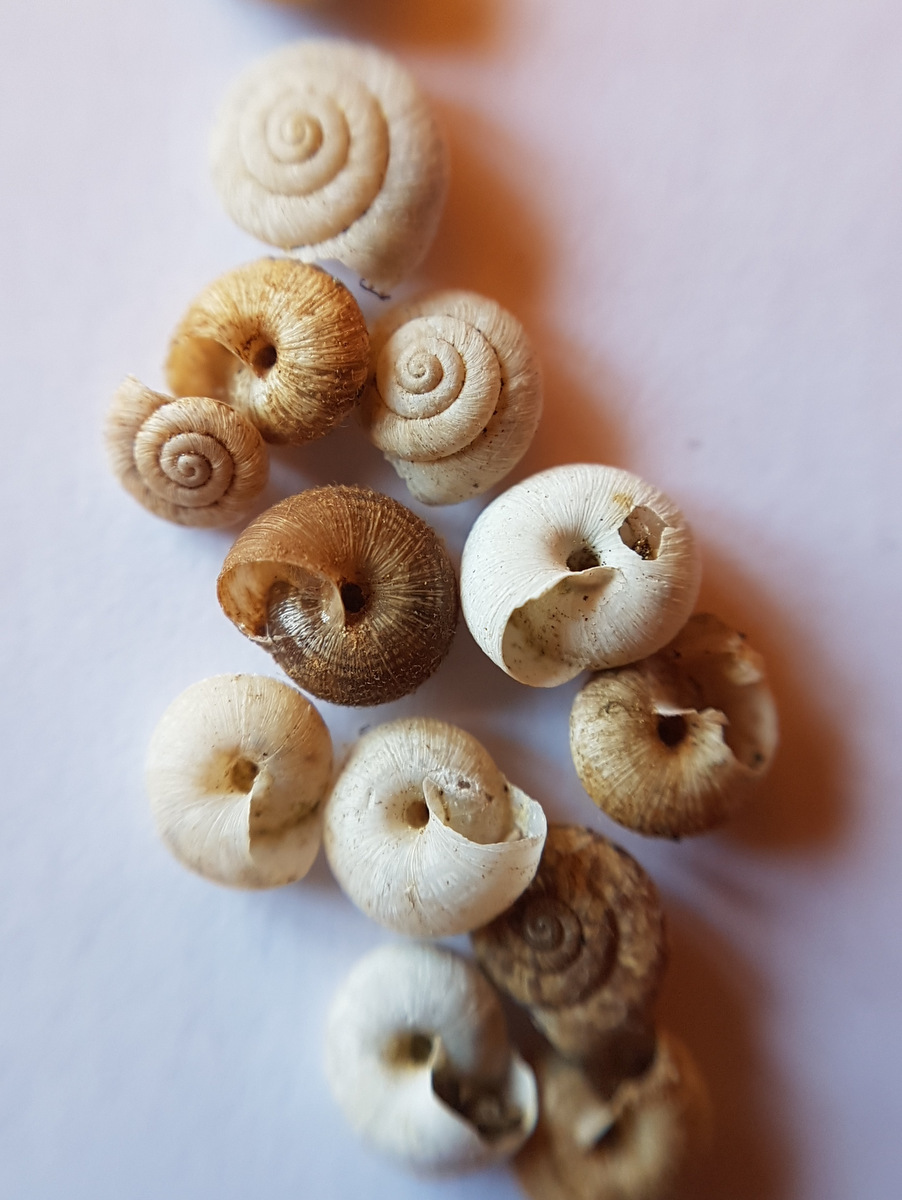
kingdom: Animalia
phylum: Mollusca
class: Gastropoda
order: Stylommatophora
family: Geomitridae
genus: Xerotricha
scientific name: Xerotricha conspurcata
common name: Snail
